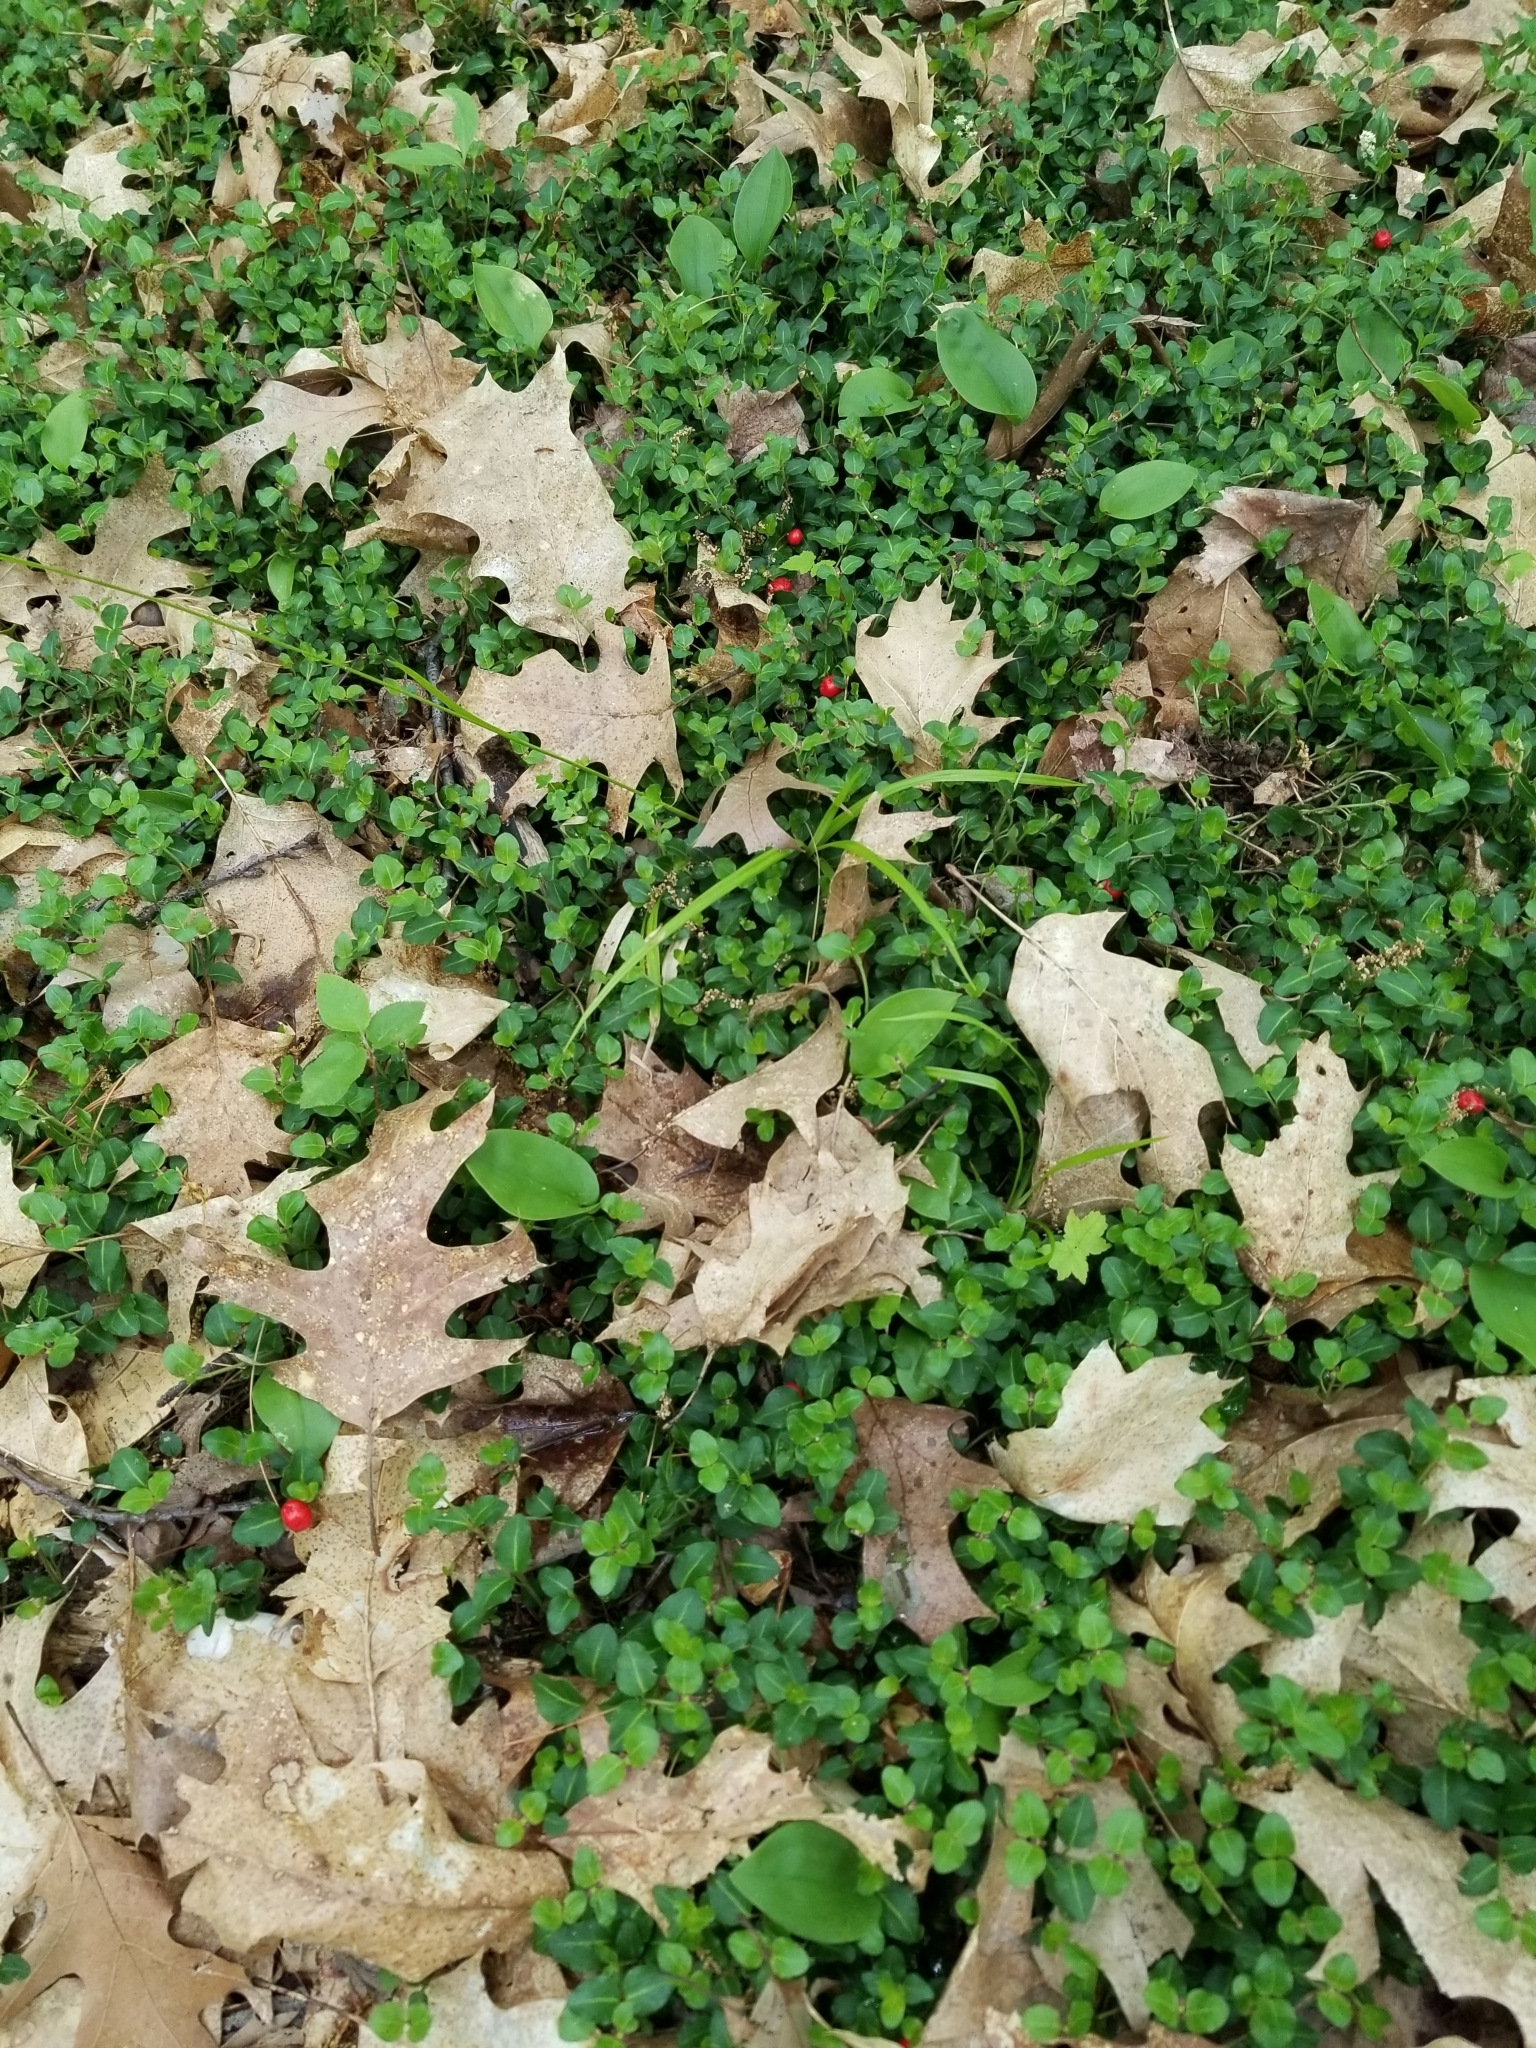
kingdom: Plantae
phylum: Tracheophyta
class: Magnoliopsida
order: Gentianales
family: Rubiaceae
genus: Mitchella
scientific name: Mitchella repens
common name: Partridge-berry
